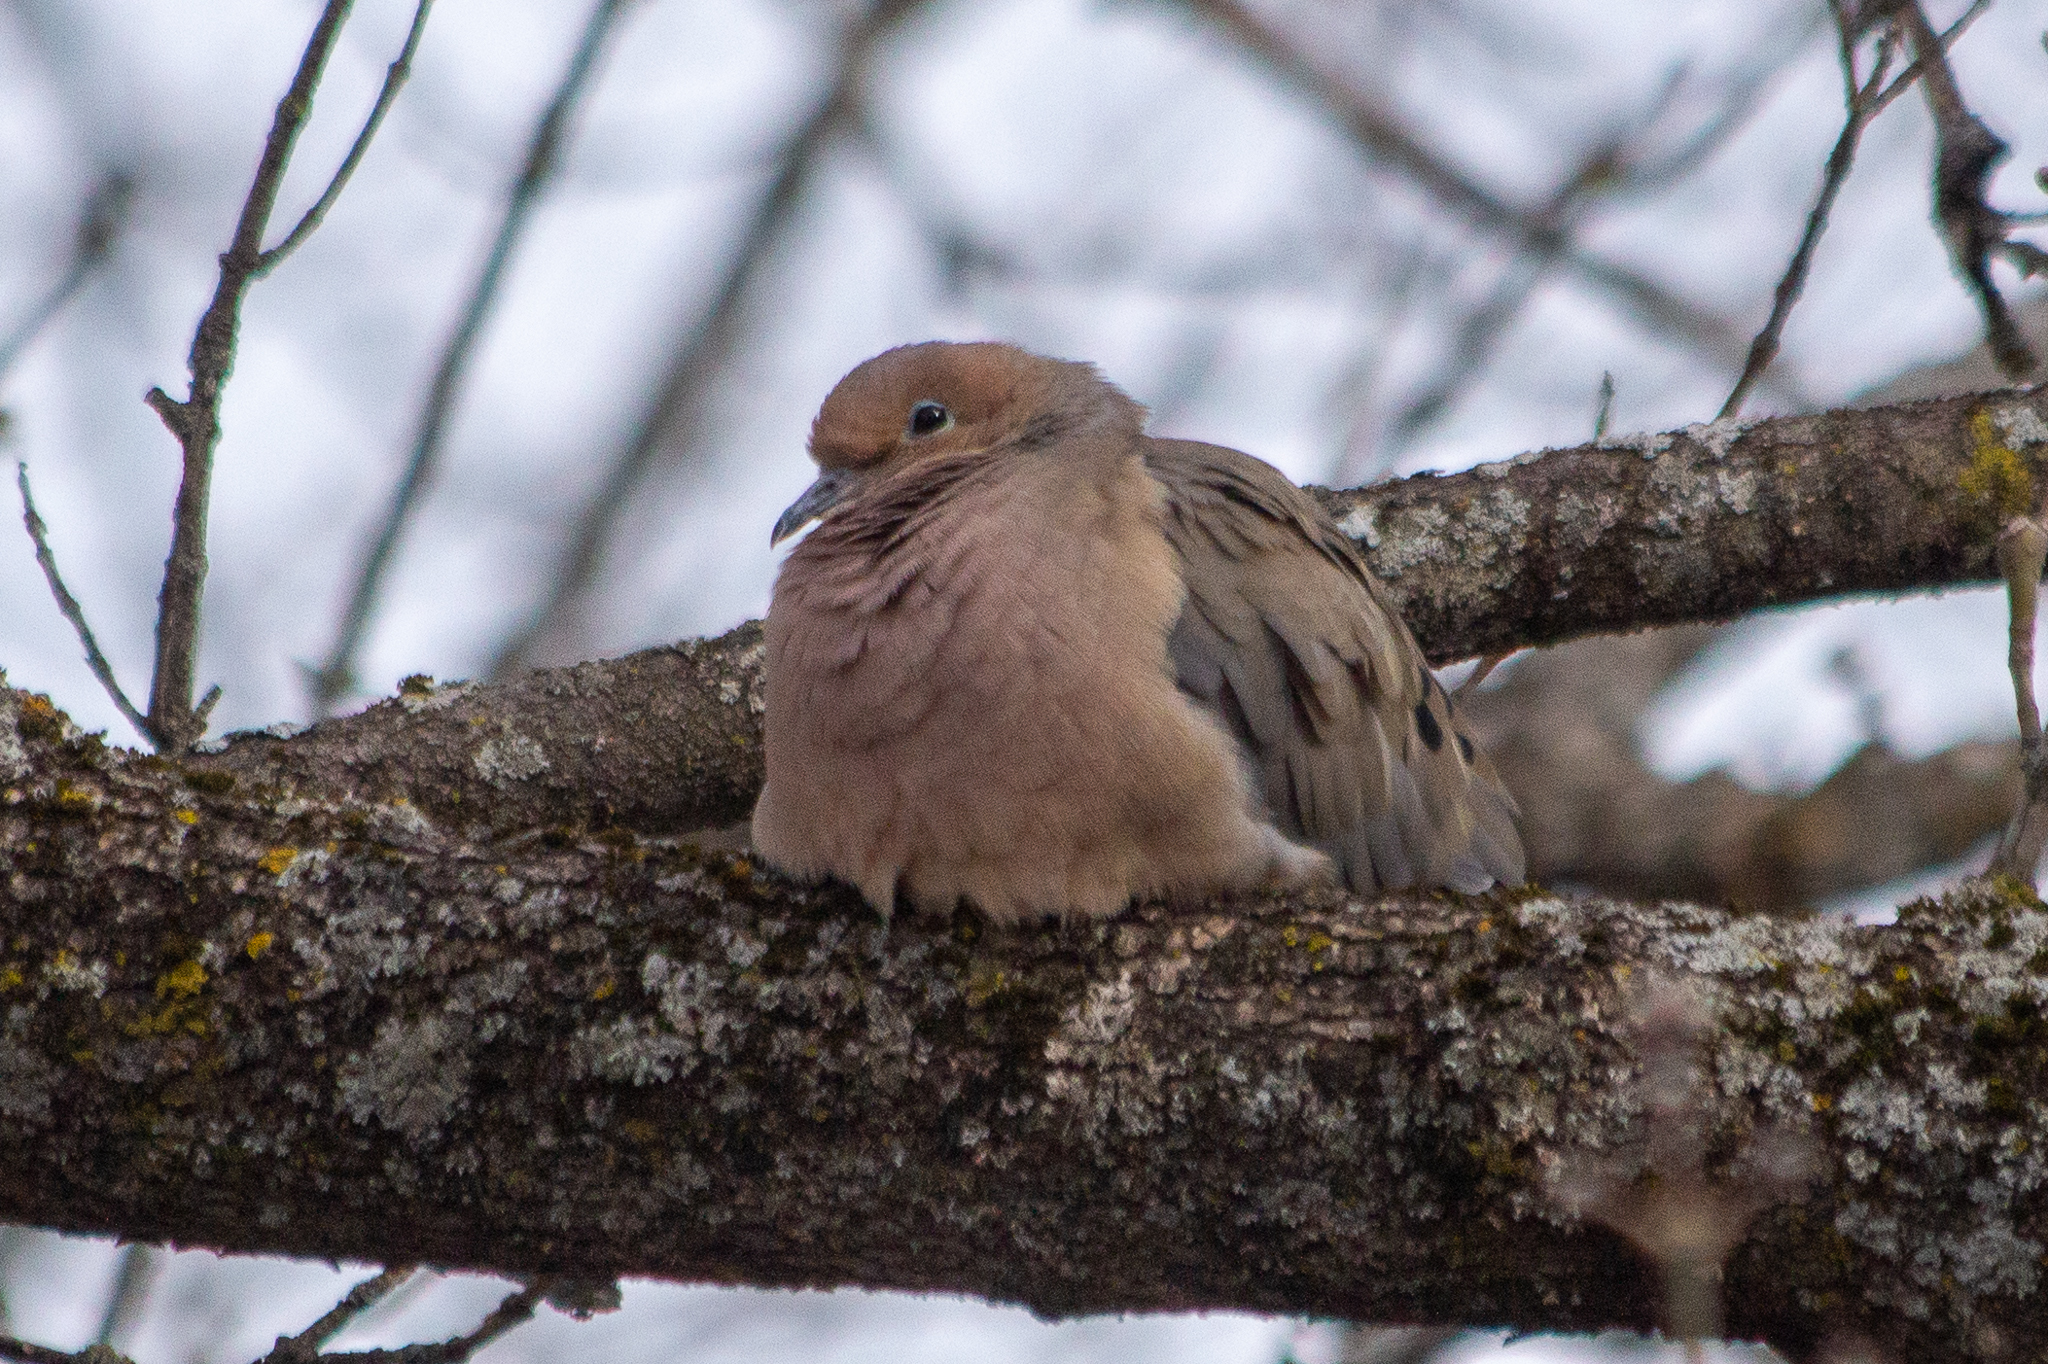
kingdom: Animalia
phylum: Chordata
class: Aves
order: Columbiformes
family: Columbidae
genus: Zenaida
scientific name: Zenaida macroura
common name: Mourning dove
